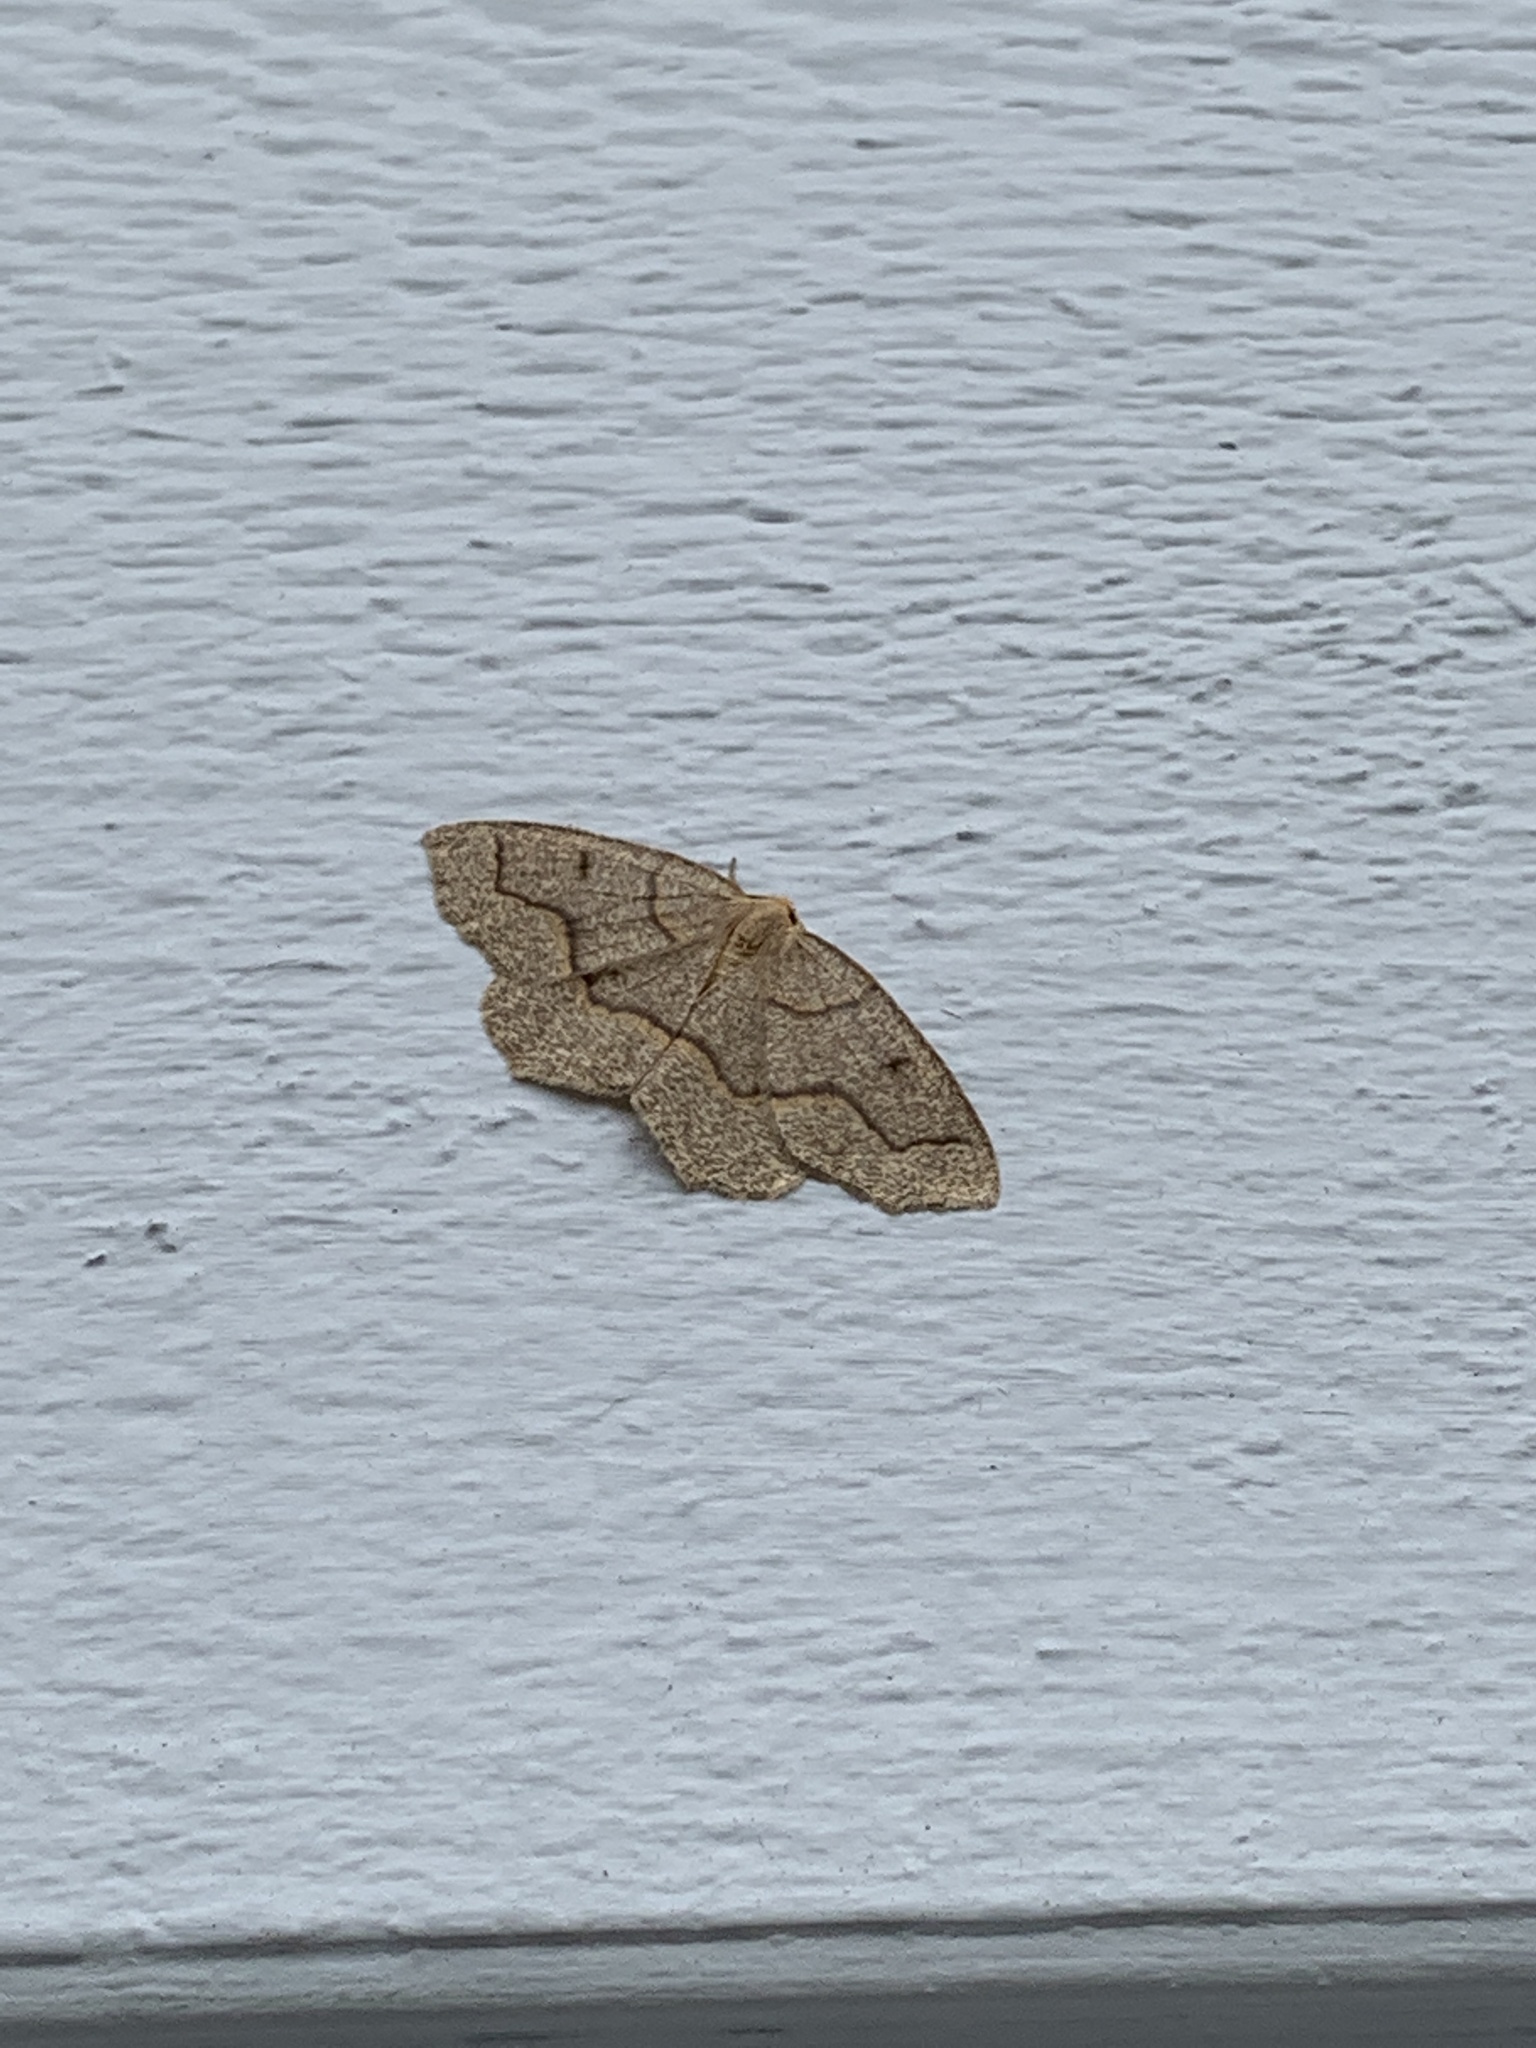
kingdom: Animalia
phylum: Arthropoda
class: Insecta
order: Lepidoptera
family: Geometridae
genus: Lambdina
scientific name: Lambdina fiscellaria
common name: Hemlock looper
